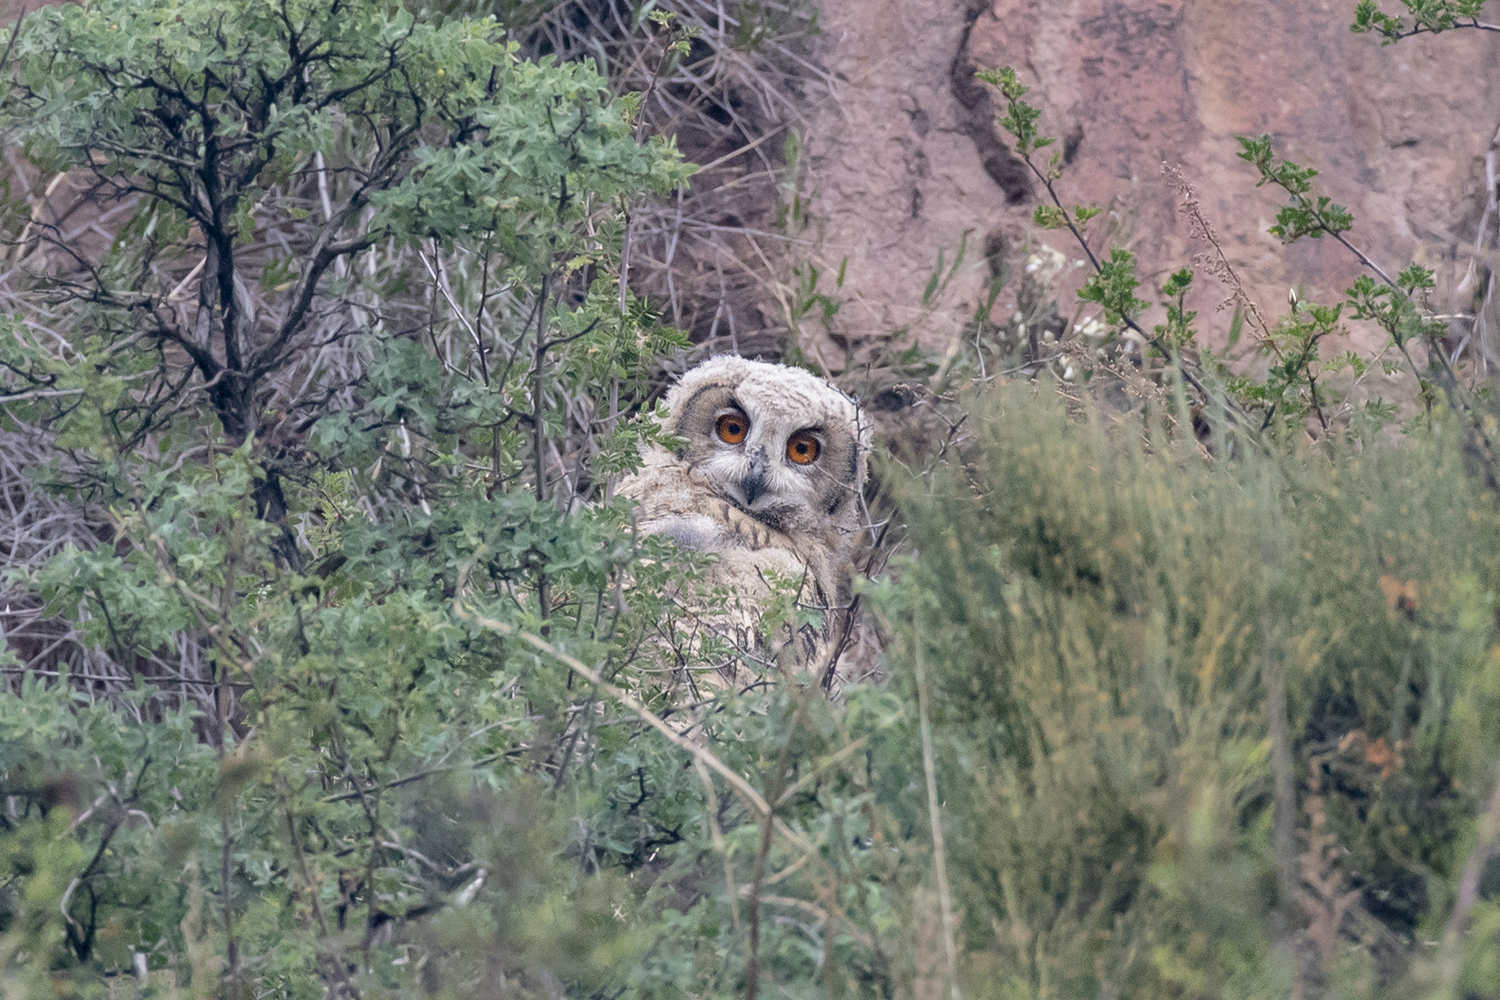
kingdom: Animalia
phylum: Chordata
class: Aves
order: Strigiformes
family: Strigidae
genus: Bubo
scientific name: Bubo bubo
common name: Eurasian eagle-owl
